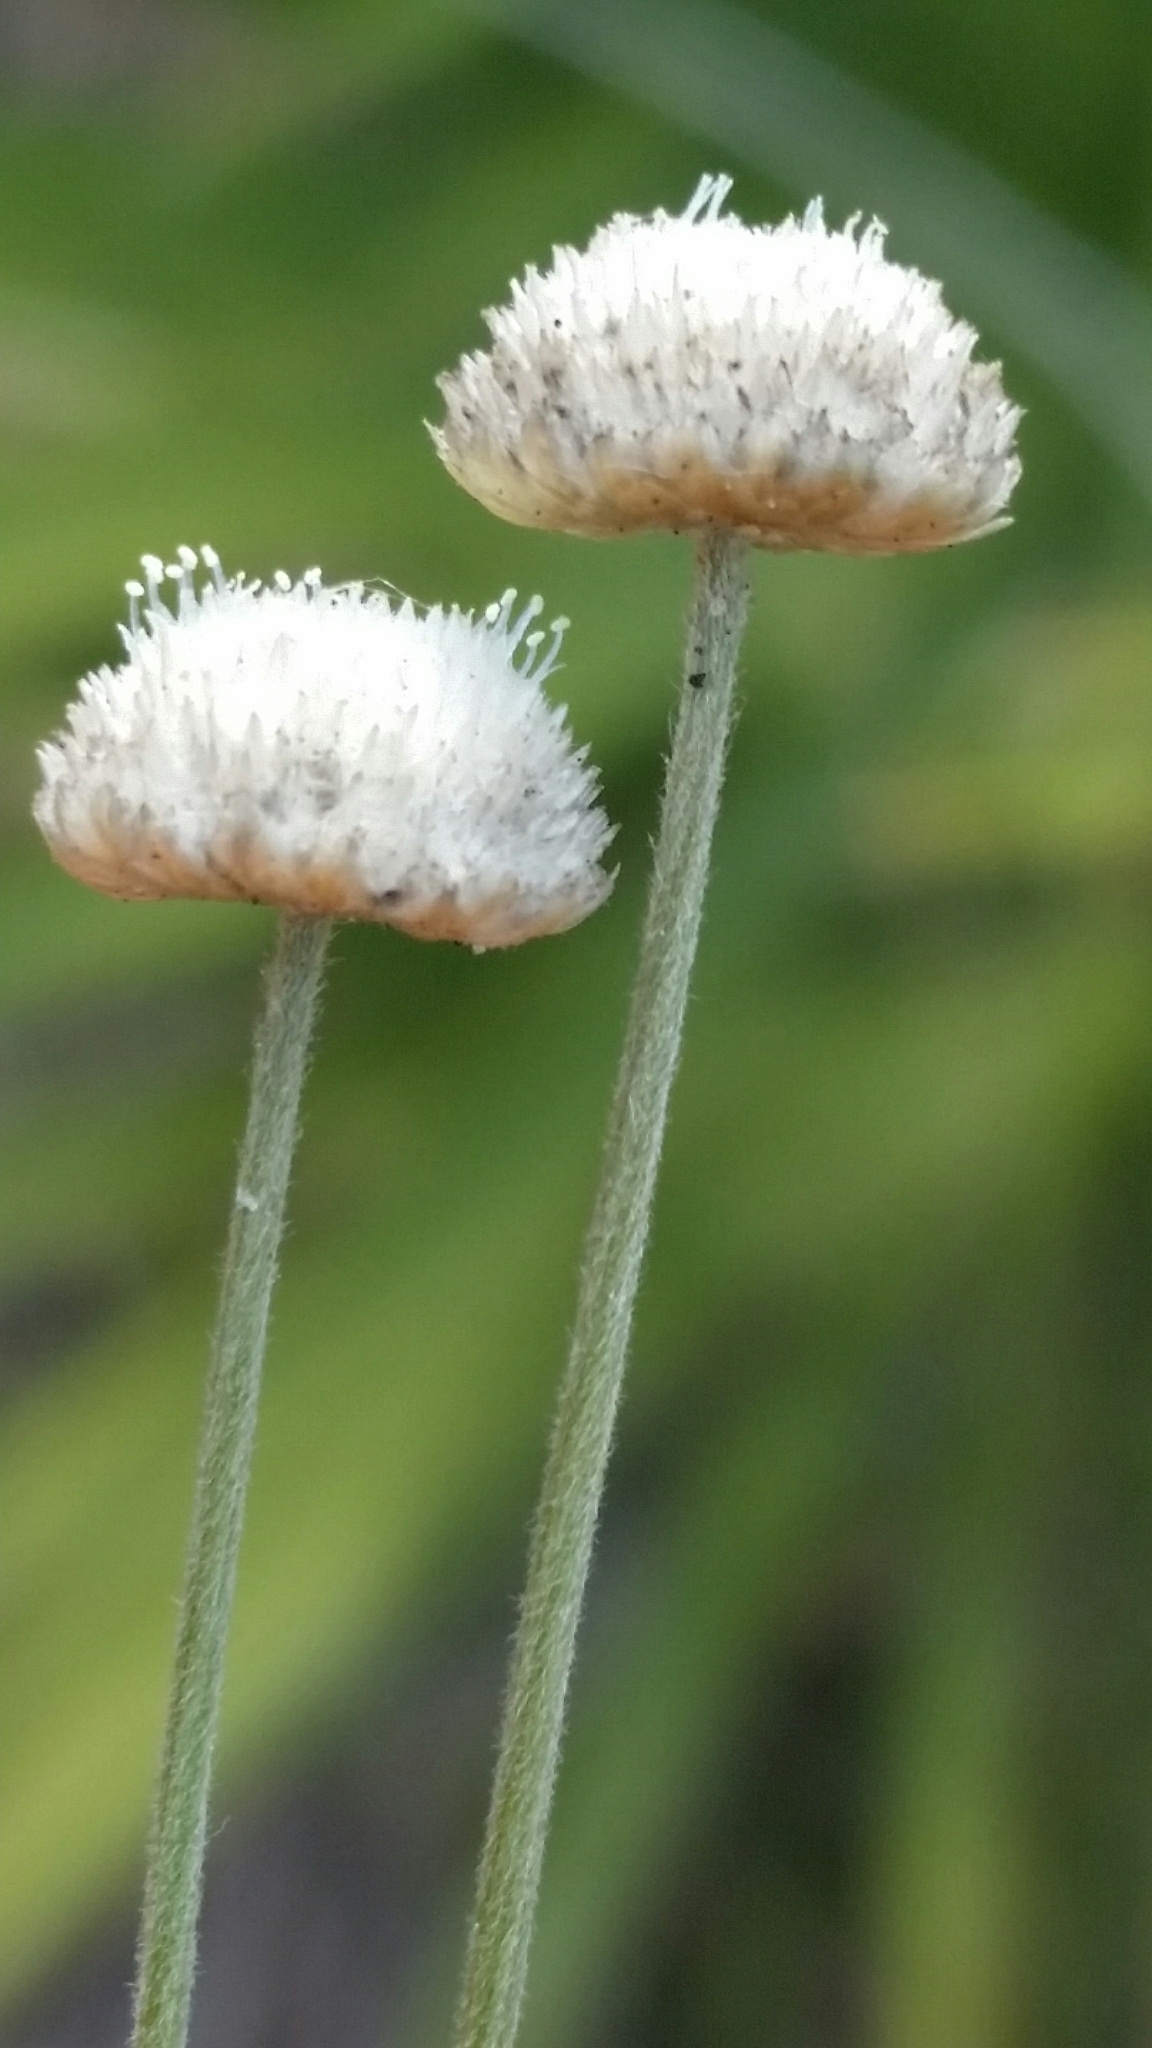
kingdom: Plantae
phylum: Tracheophyta
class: Liliopsida
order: Poales
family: Eriocaulaceae
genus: Syngonanthus
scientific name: Syngonanthus flavidulus
